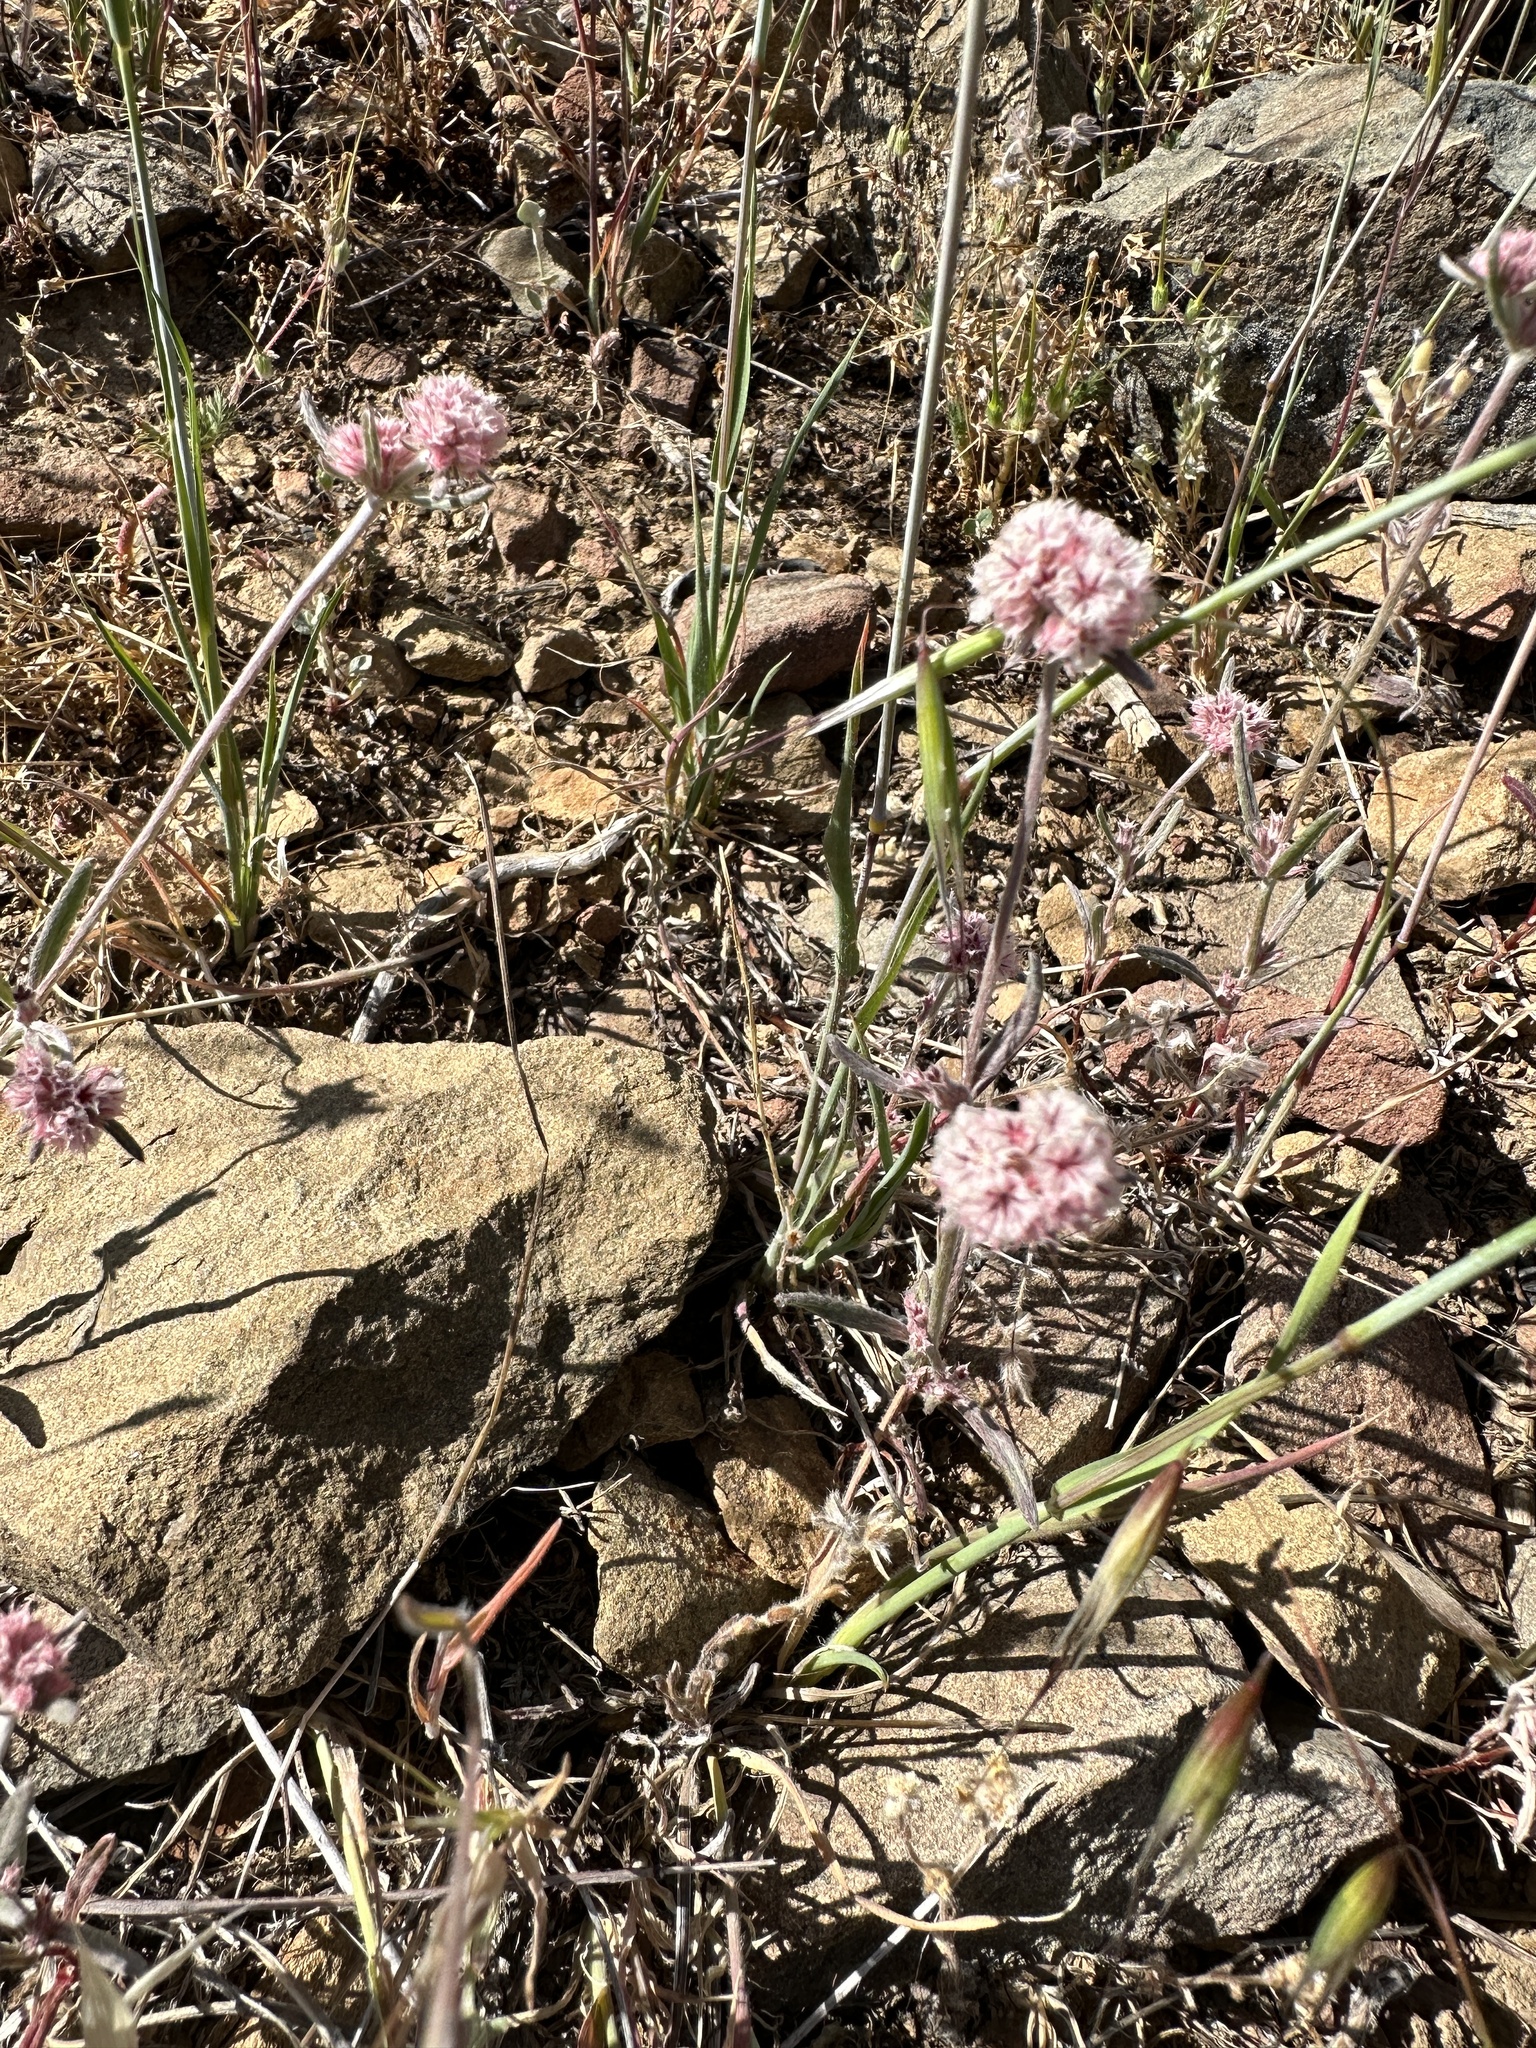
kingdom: Plantae
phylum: Tracheophyta
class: Magnoliopsida
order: Caryophyllales
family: Polygonaceae
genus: Chorizanthe
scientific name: Chorizanthe membranacea
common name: Pink spineflower
